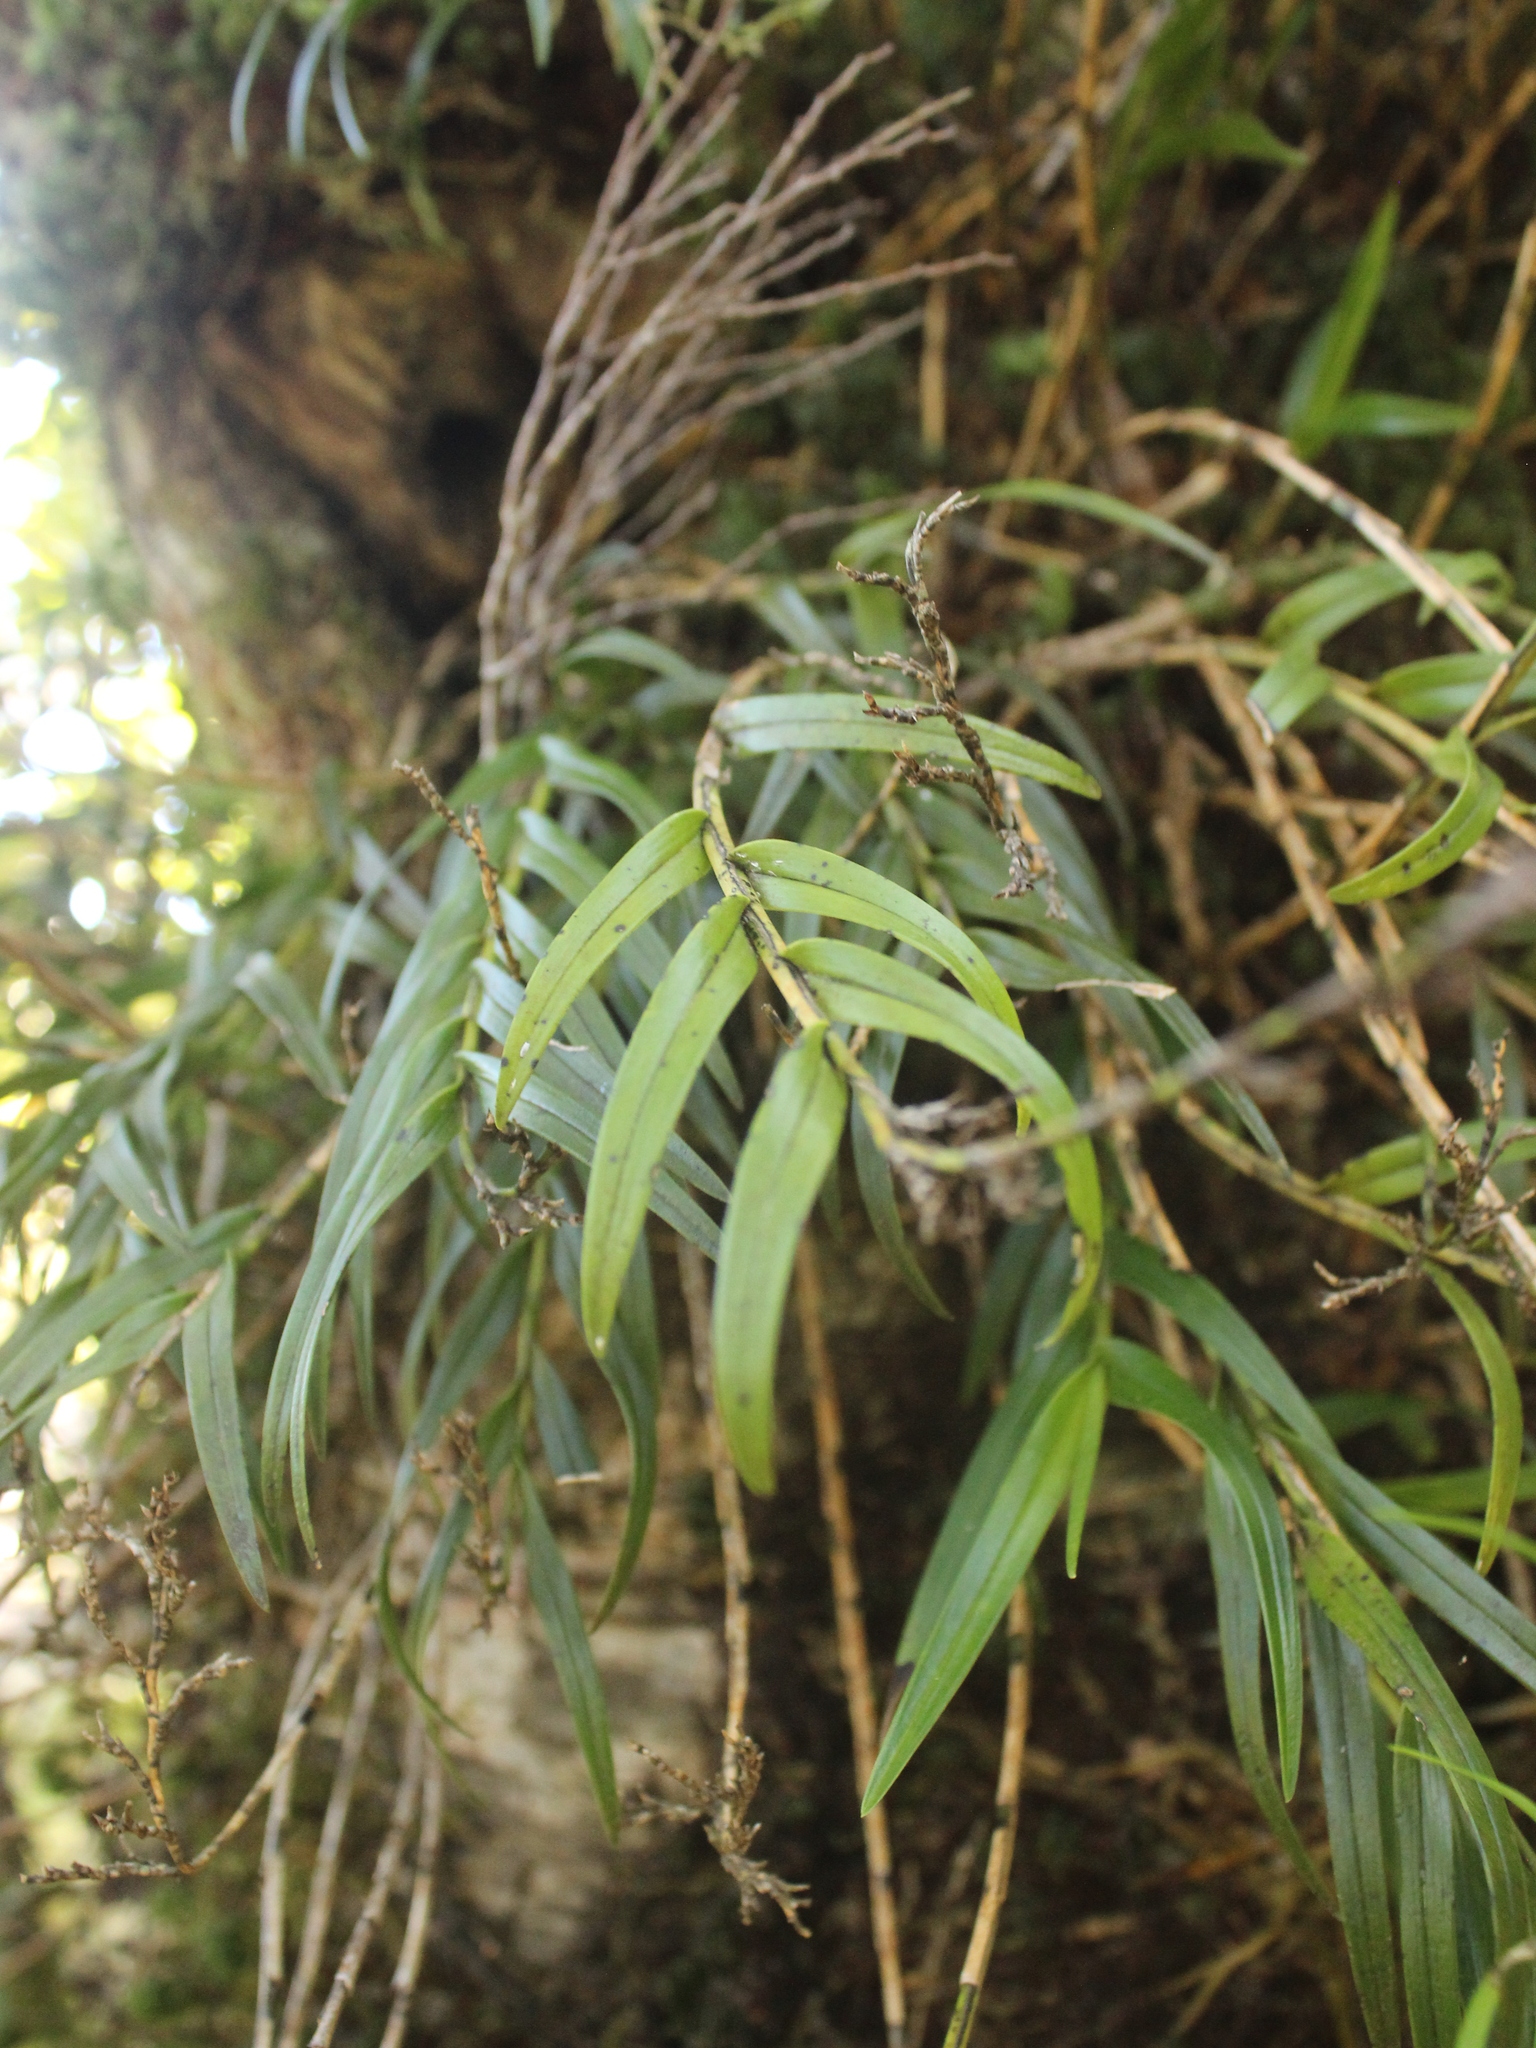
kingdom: Plantae
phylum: Tracheophyta
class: Liliopsida
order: Asparagales
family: Orchidaceae
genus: Earina
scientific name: Earina autumnalis
